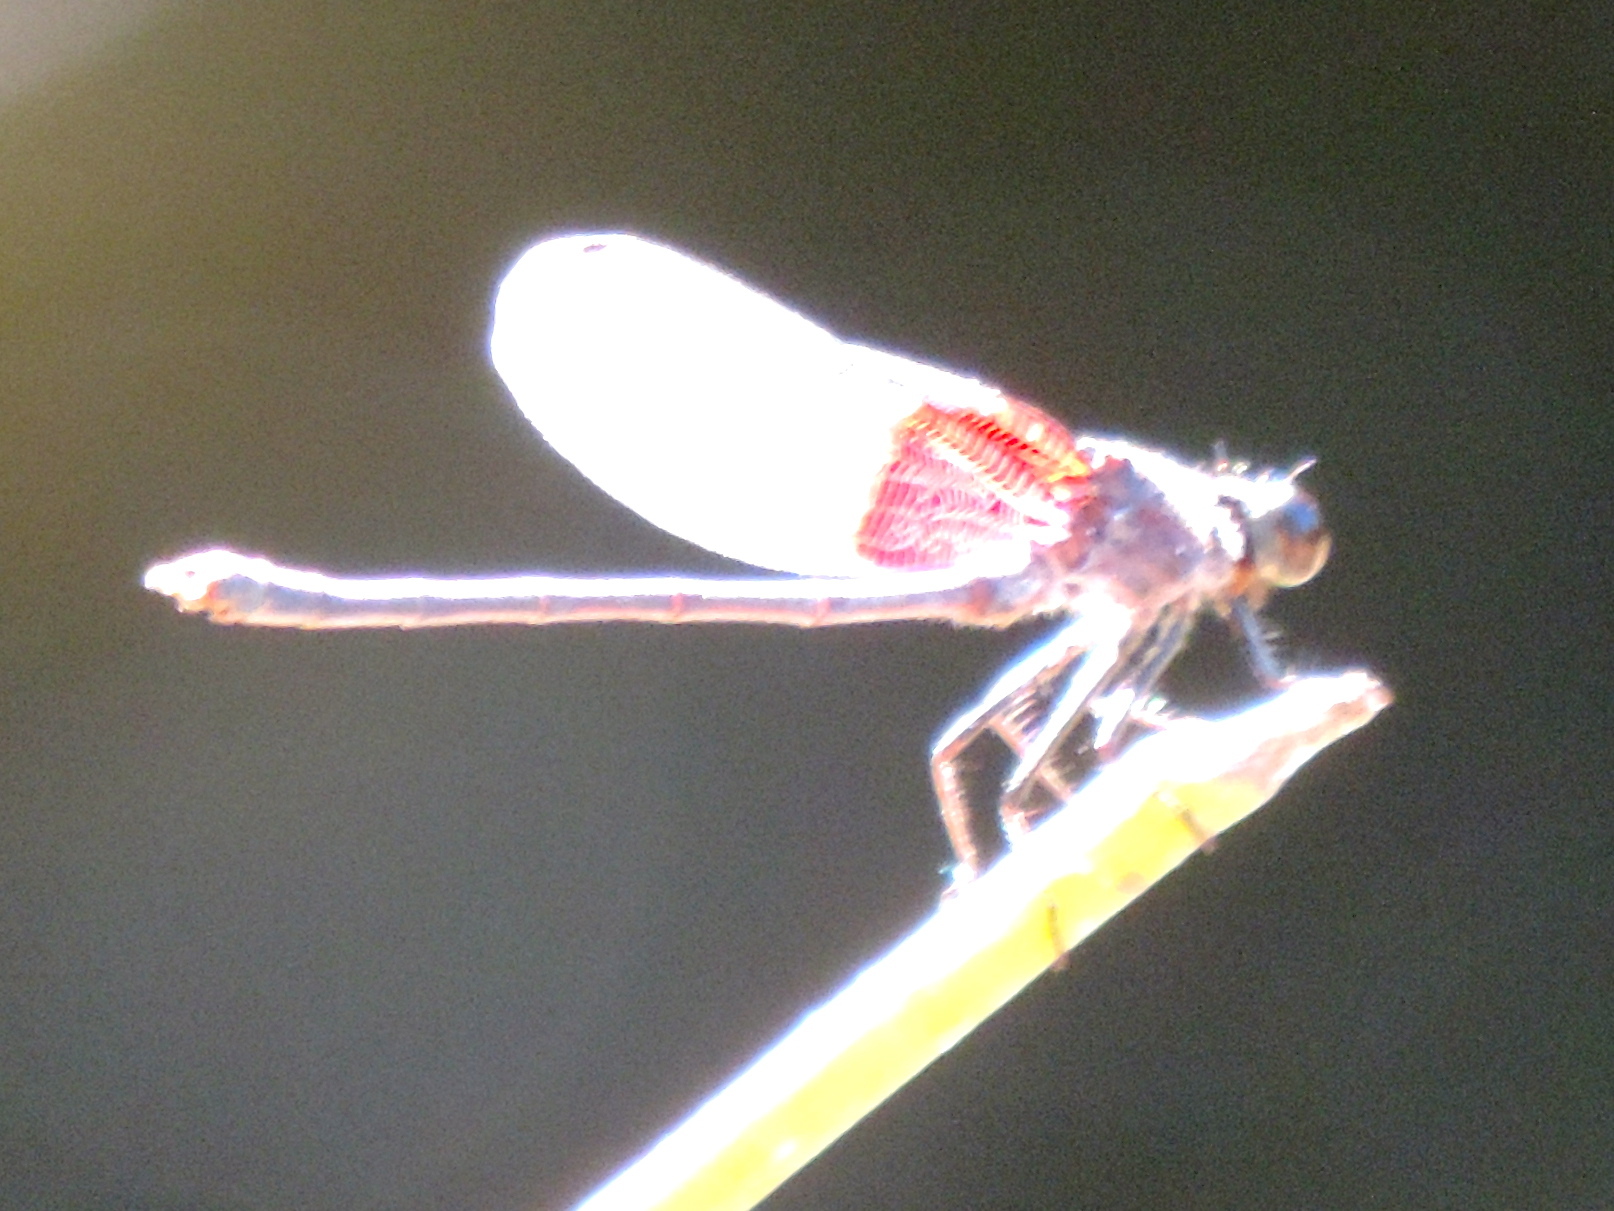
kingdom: Animalia
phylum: Arthropoda
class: Insecta
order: Odonata
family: Calopterygidae
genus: Hetaerina
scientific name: Hetaerina americana
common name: American rubyspot
